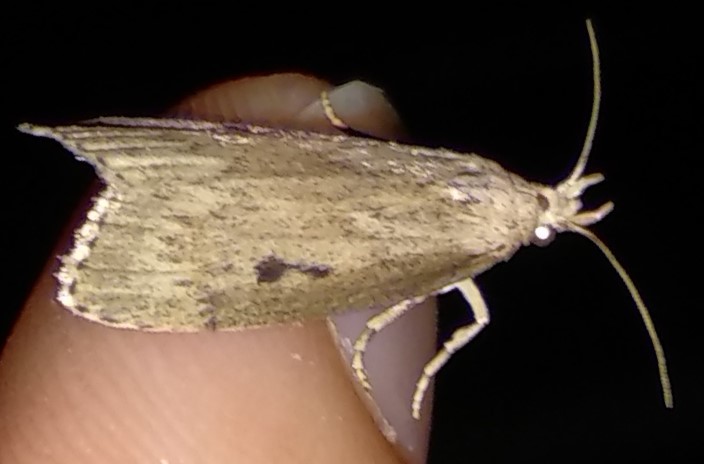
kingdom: Animalia
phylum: Arthropoda
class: Insecta
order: Lepidoptera
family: Pyralidae
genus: Aphomia
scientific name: Aphomia sociella
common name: Bee moth
